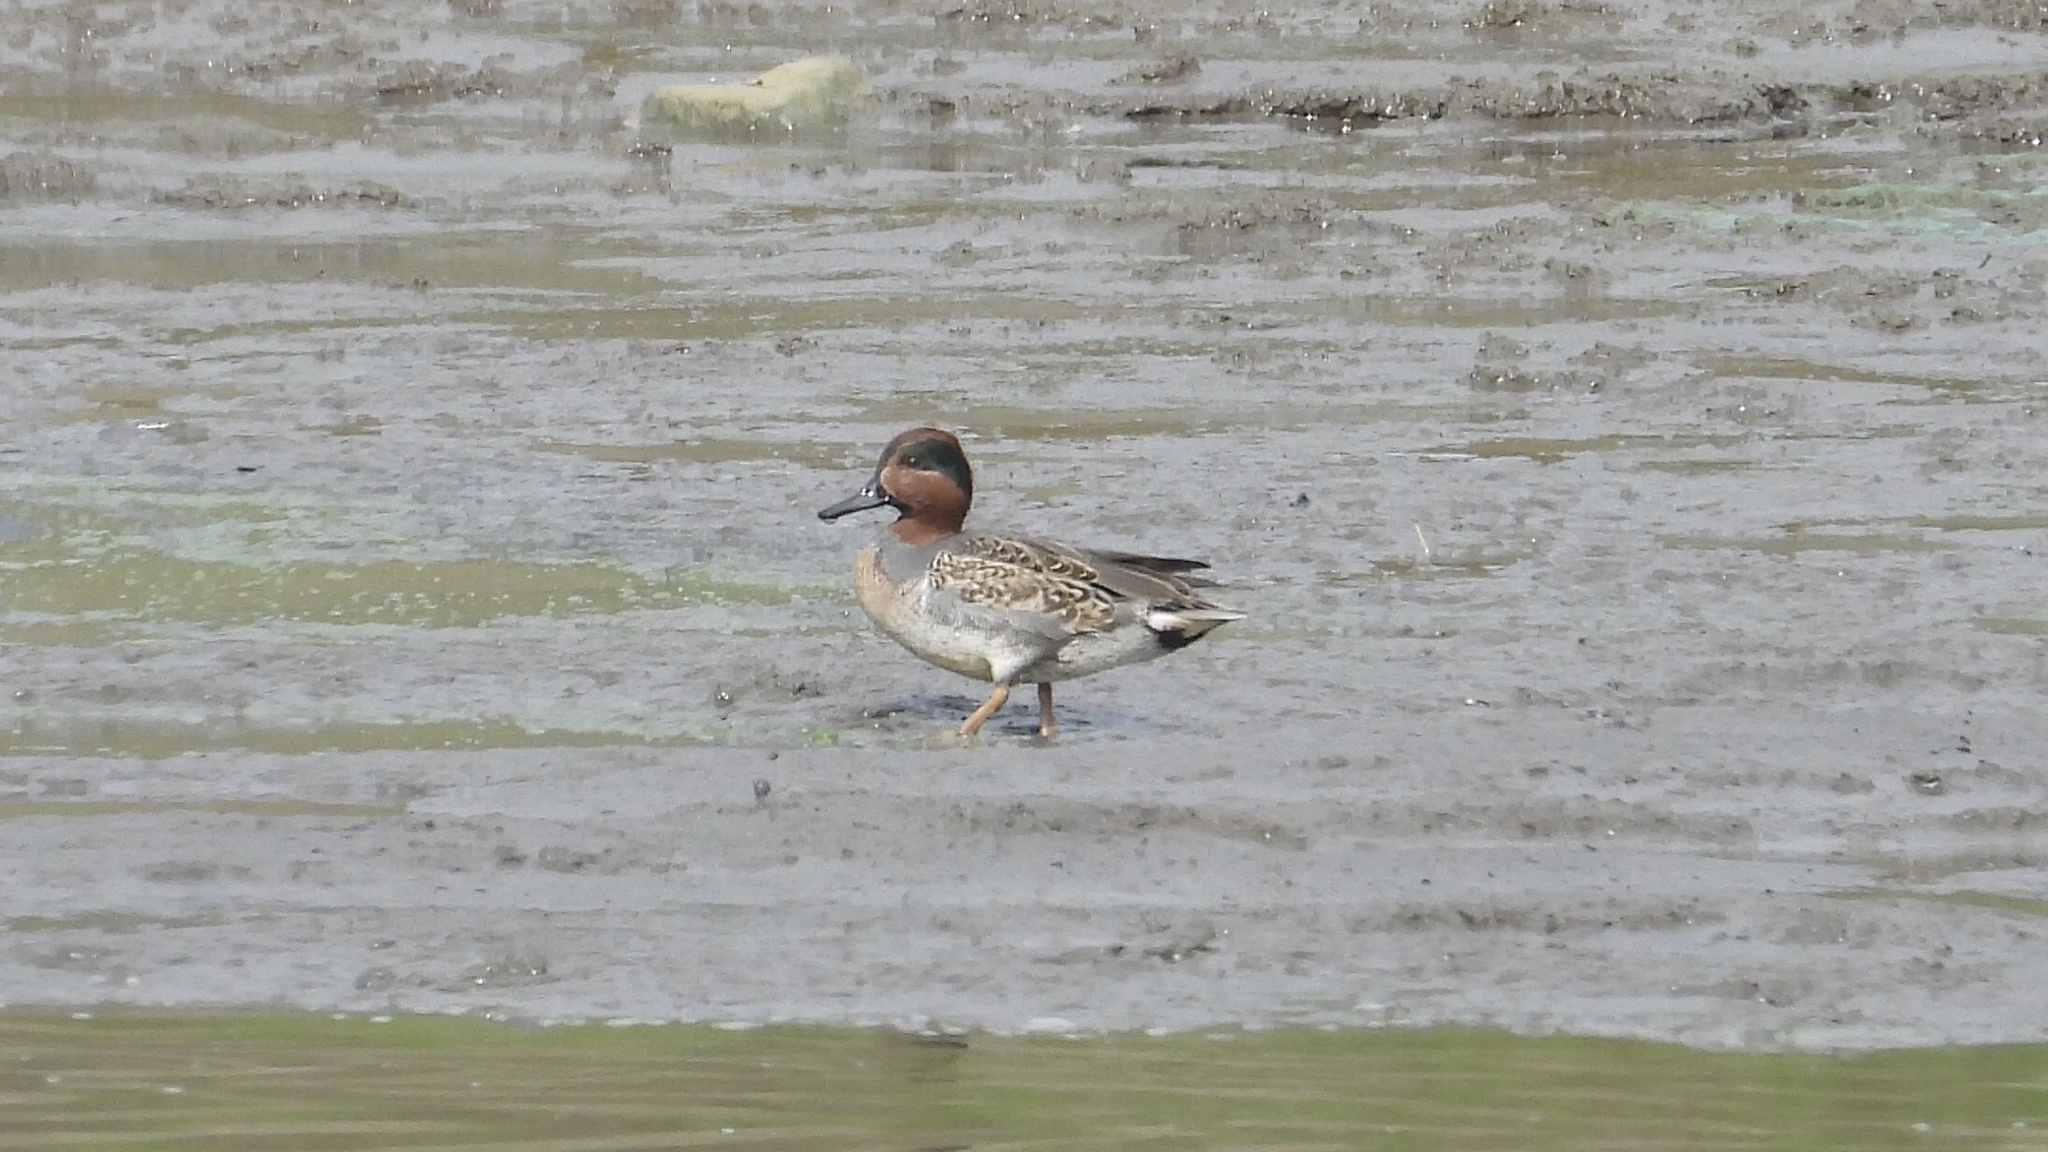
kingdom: Animalia
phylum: Chordata
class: Aves
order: Anseriformes
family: Anatidae
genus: Anas
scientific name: Anas crecca
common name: Eurasian teal
